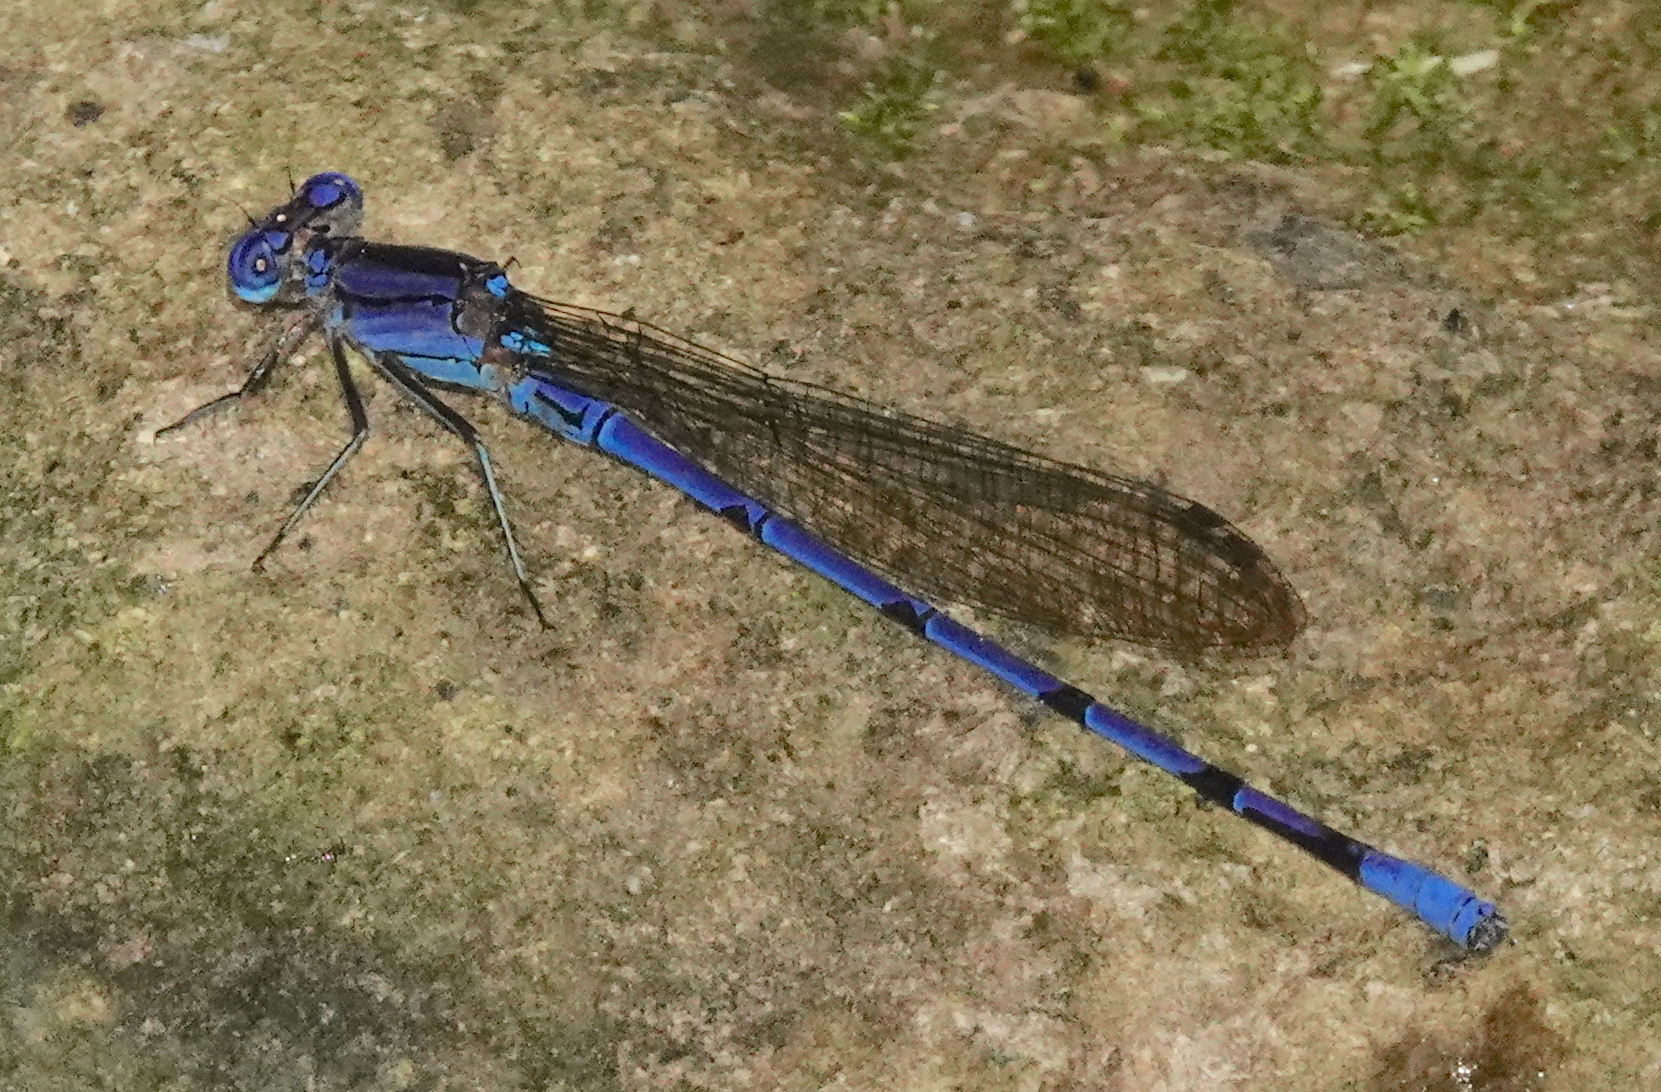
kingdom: Animalia
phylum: Arthropoda
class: Insecta
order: Odonata
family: Coenagrionidae
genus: Argia
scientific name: Argia anceps
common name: Cerulean dancer
